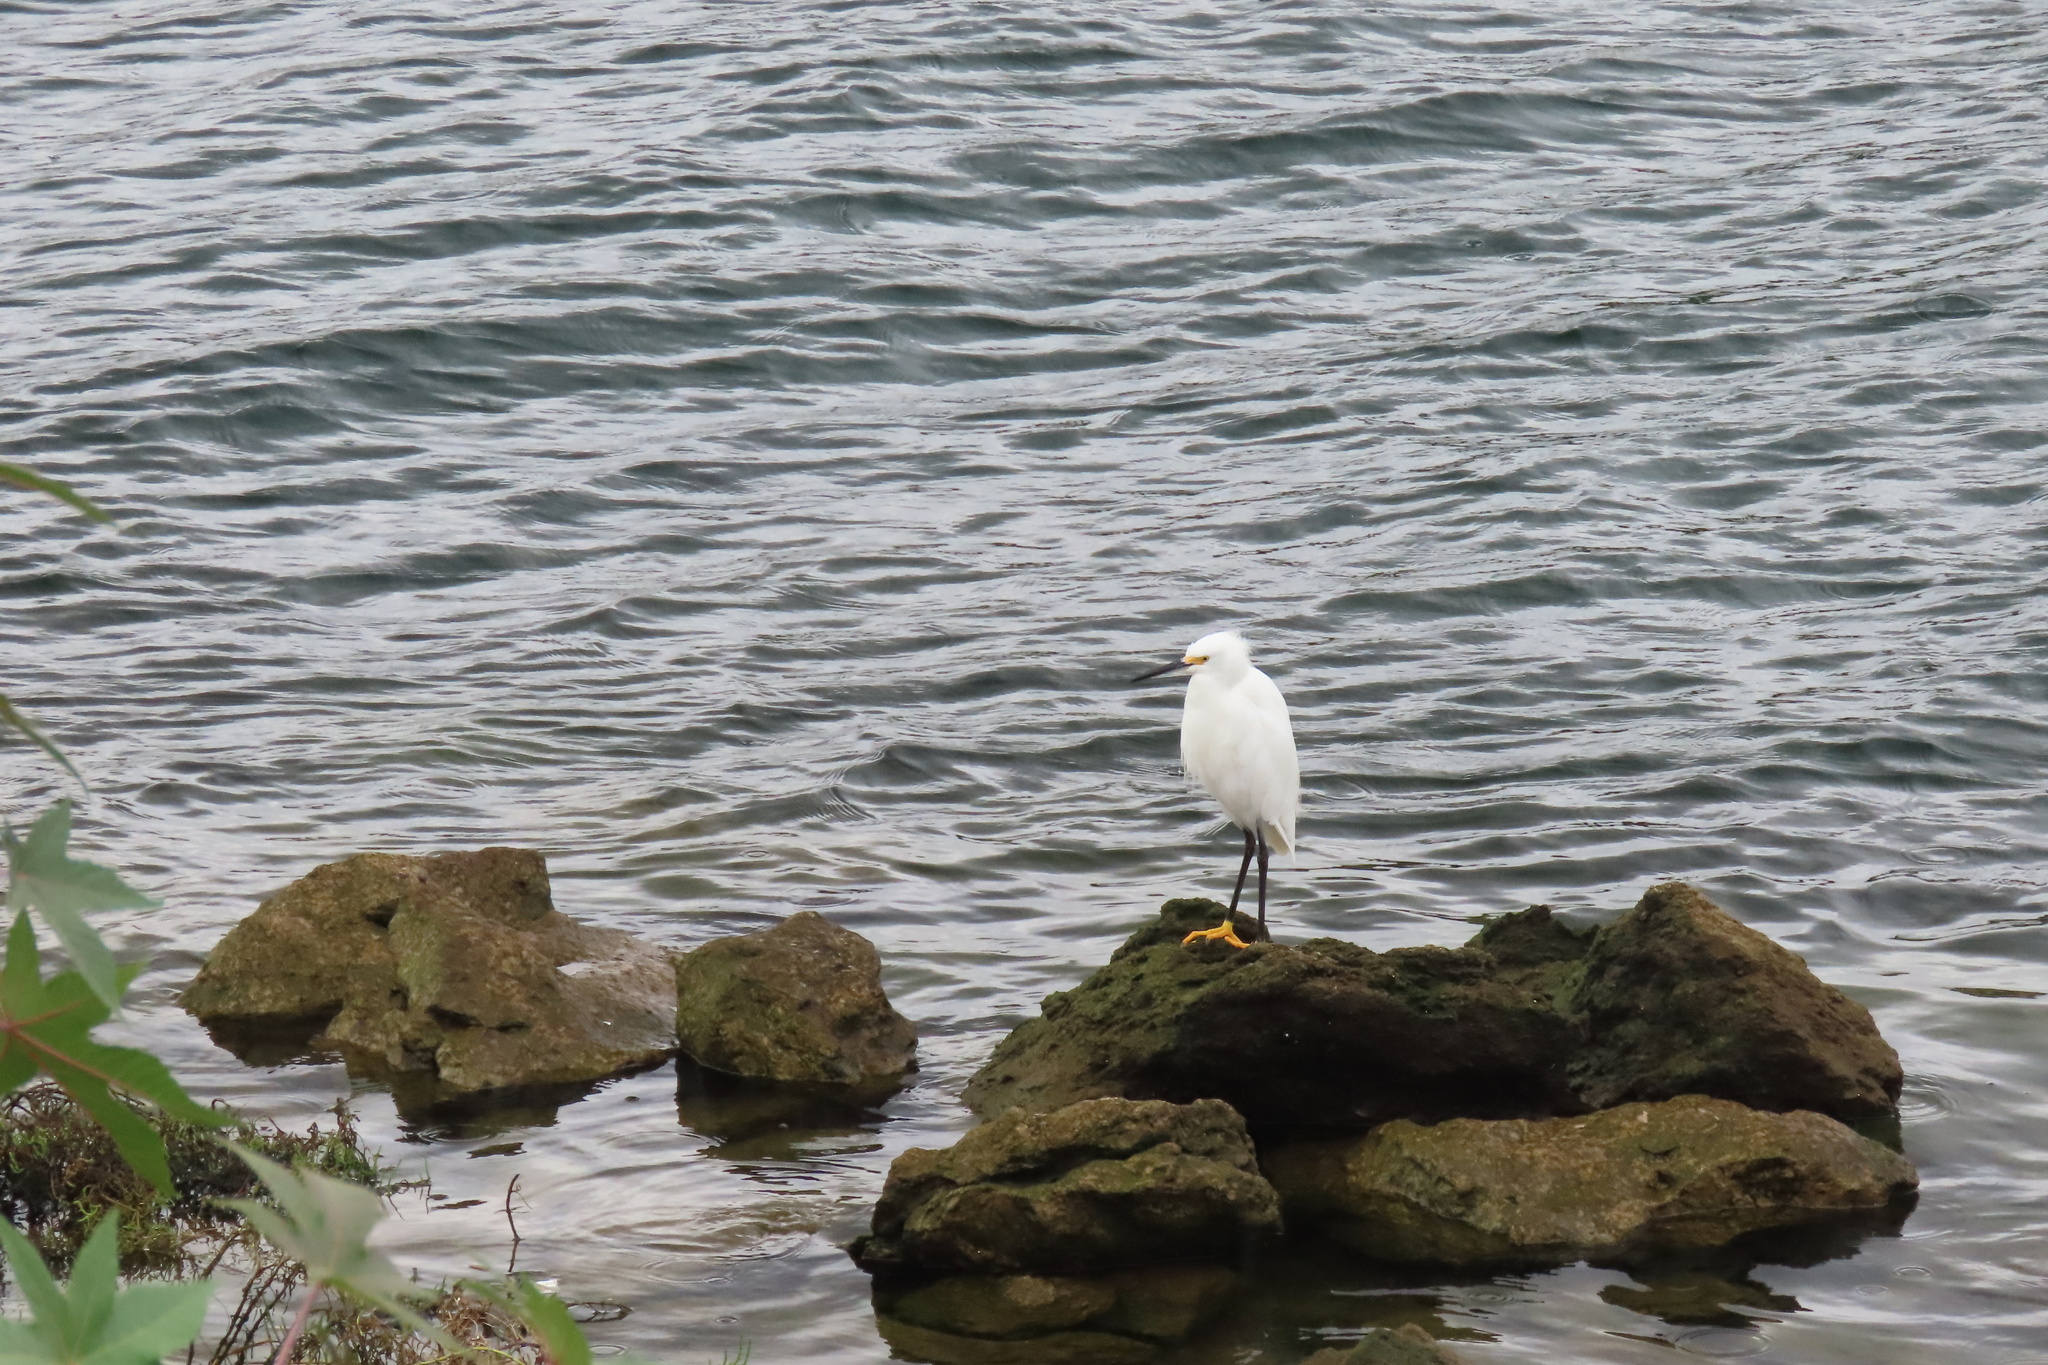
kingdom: Animalia
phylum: Chordata
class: Aves
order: Pelecaniformes
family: Ardeidae
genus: Egretta
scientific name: Egretta thula
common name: Snowy egret
